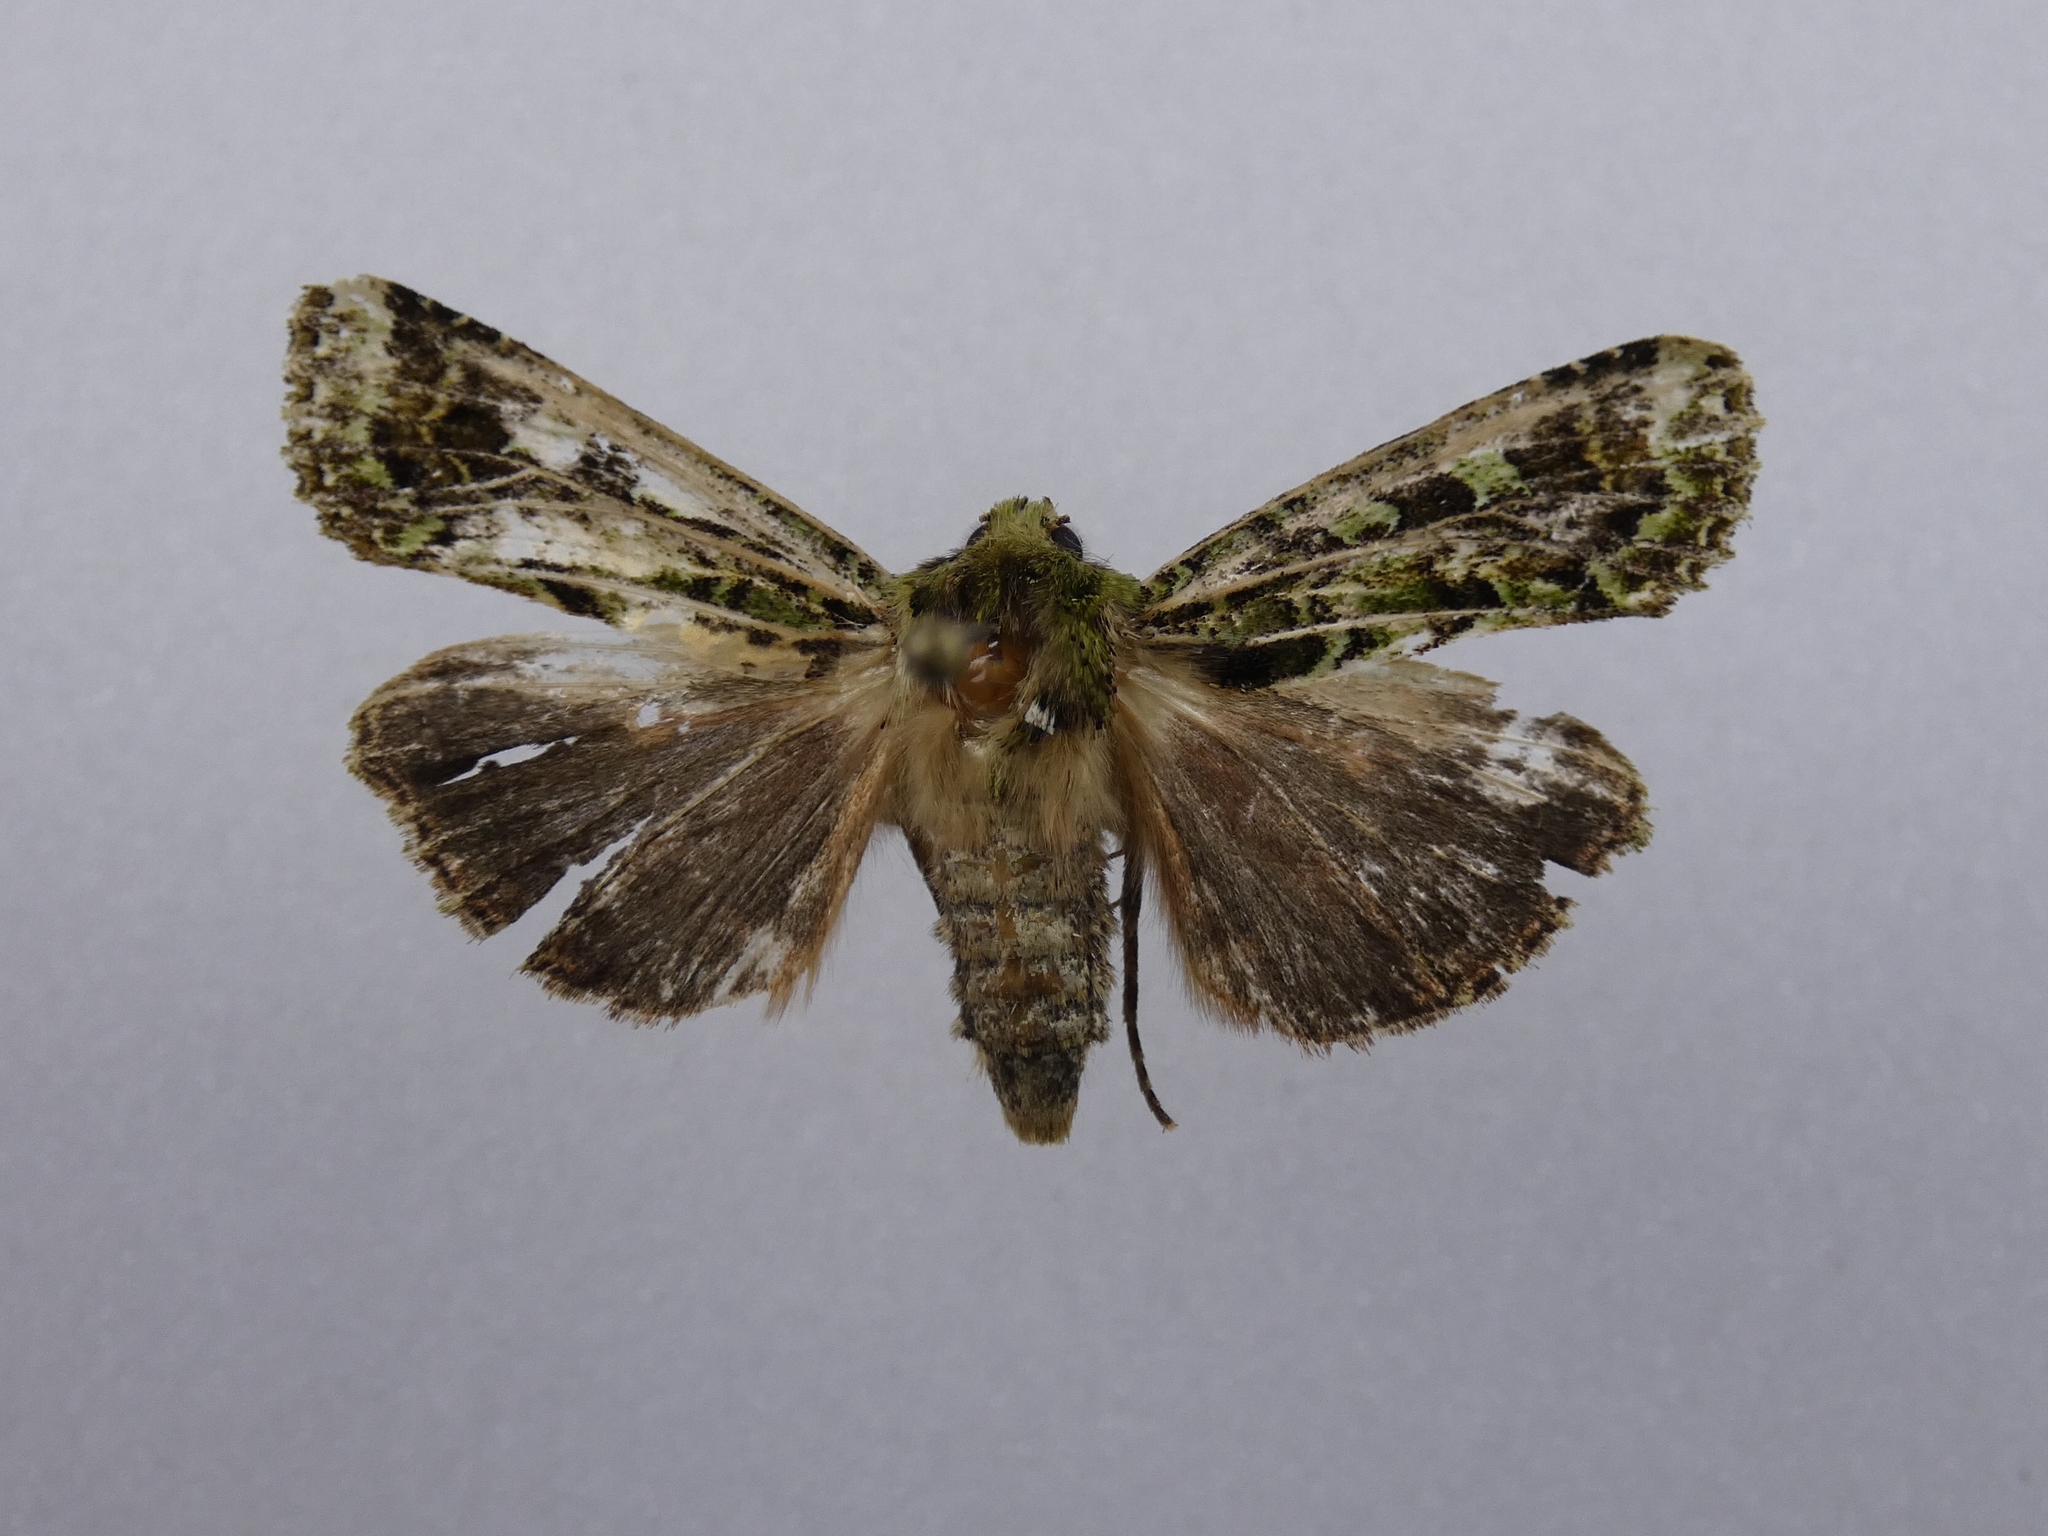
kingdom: Animalia
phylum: Arthropoda
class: Insecta
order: Lepidoptera
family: Noctuidae
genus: Feredayia
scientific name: Feredayia grammosa
